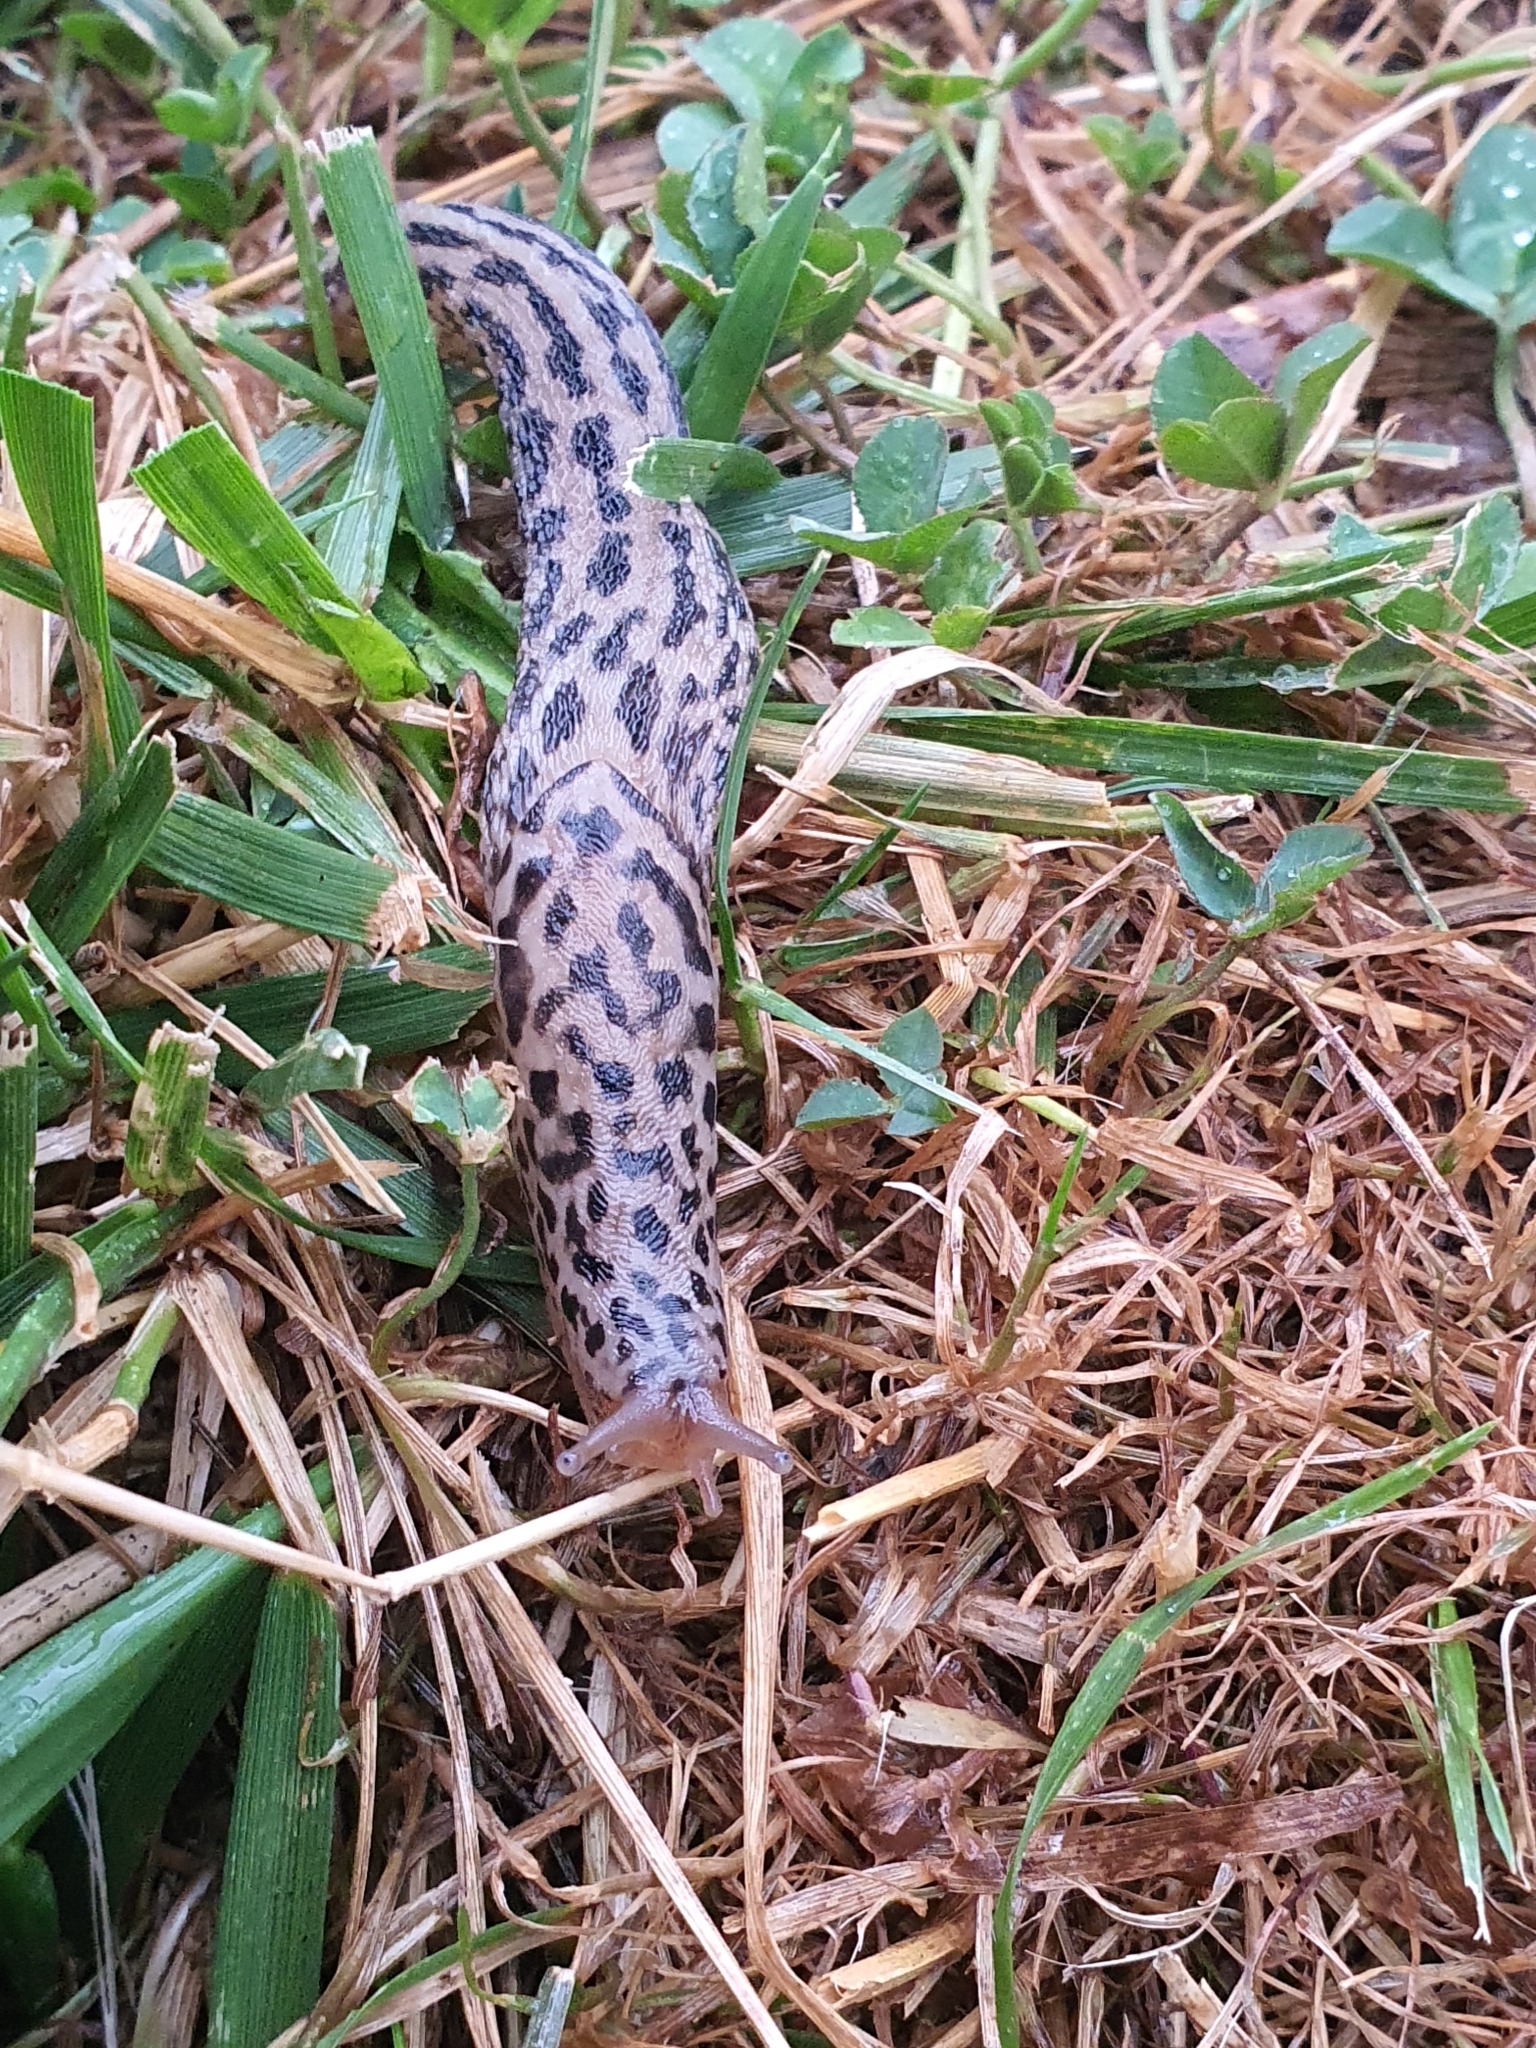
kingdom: Animalia
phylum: Mollusca
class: Gastropoda
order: Stylommatophora
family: Limacidae
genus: Limax
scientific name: Limax maximus
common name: Great grey slug
